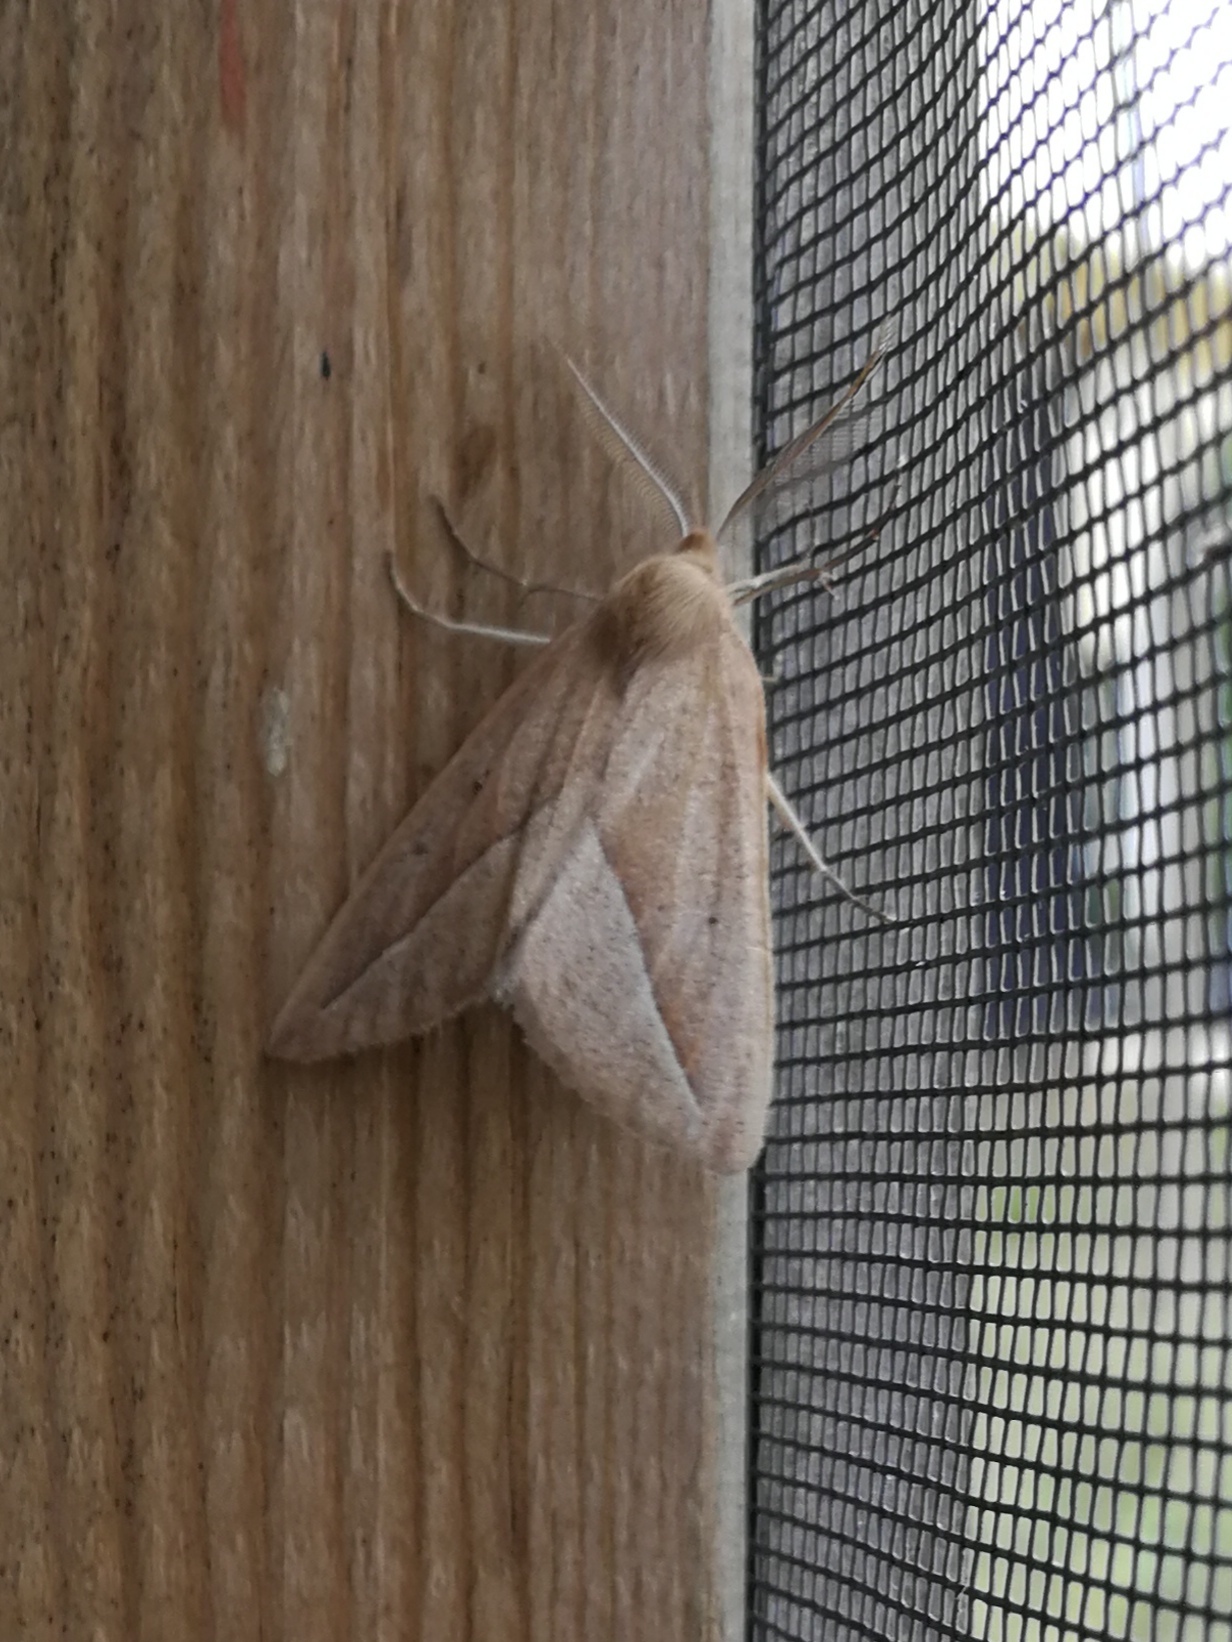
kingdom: Animalia
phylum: Arthropoda
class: Insecta
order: Lepidoptera
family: Geometridae
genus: Compsoptera
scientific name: Compsoptera opacaria
